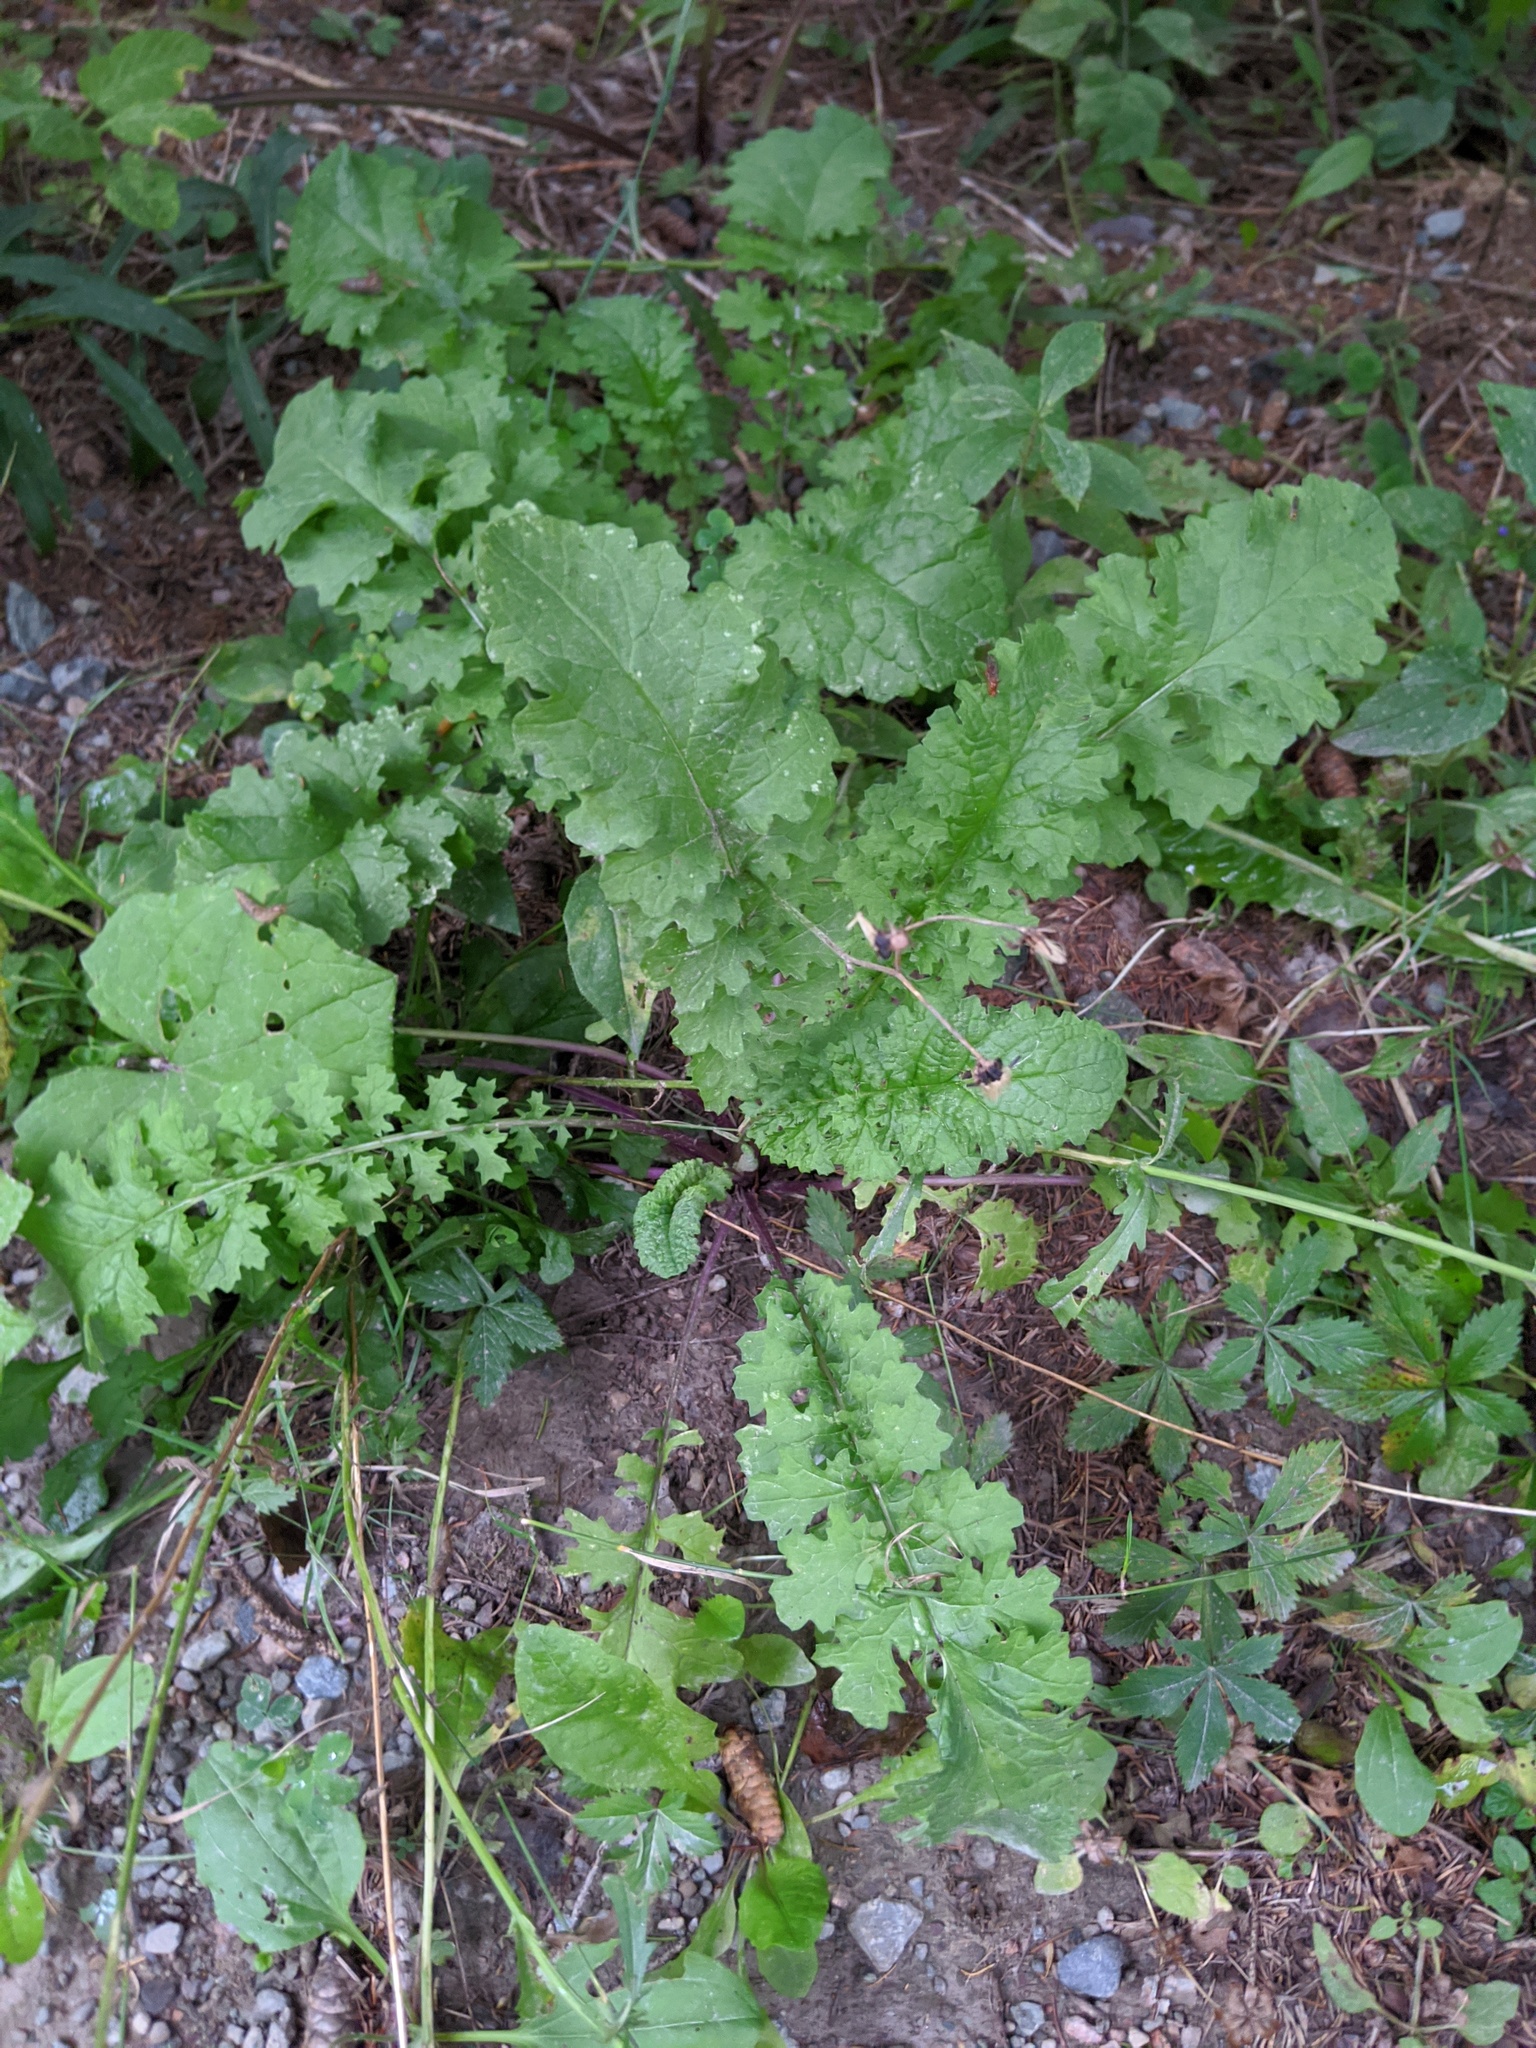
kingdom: Plantae
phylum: Tracheophyta
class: Magnoliopsida
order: Asterales
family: Asteraceae
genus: Jacobaea
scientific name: Jacobaea vulgaris
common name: Stinking willie
